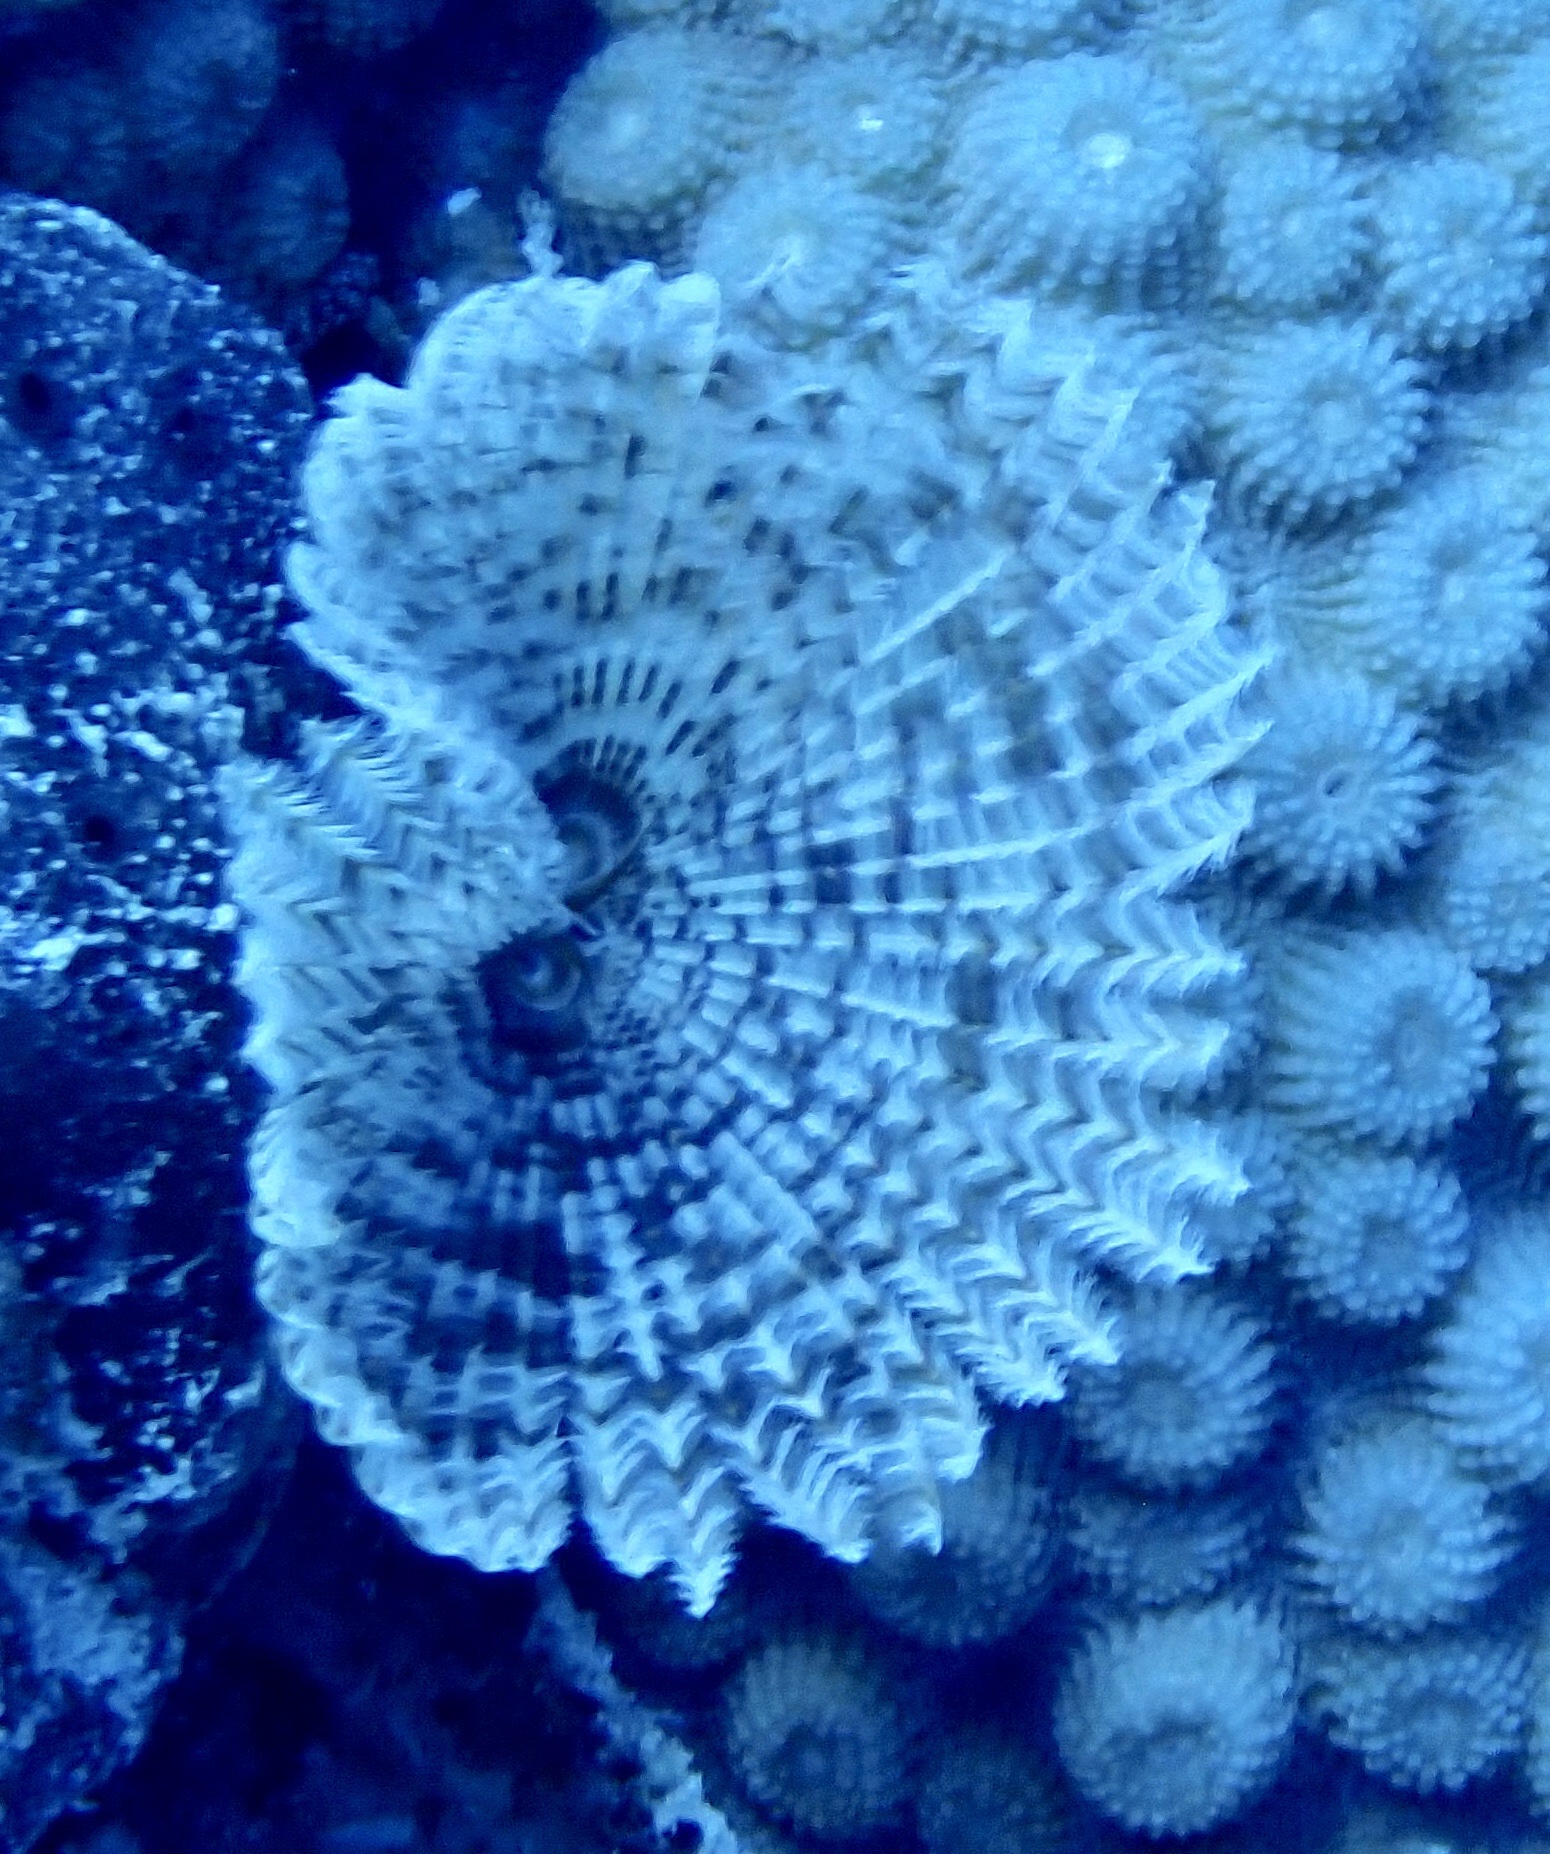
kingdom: Animalia
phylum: Annelida
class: Polychaeta
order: Sabellida
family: Sabellidae
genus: Sabellastarte
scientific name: Sabellastarte spectabilis
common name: Feather duster worm
